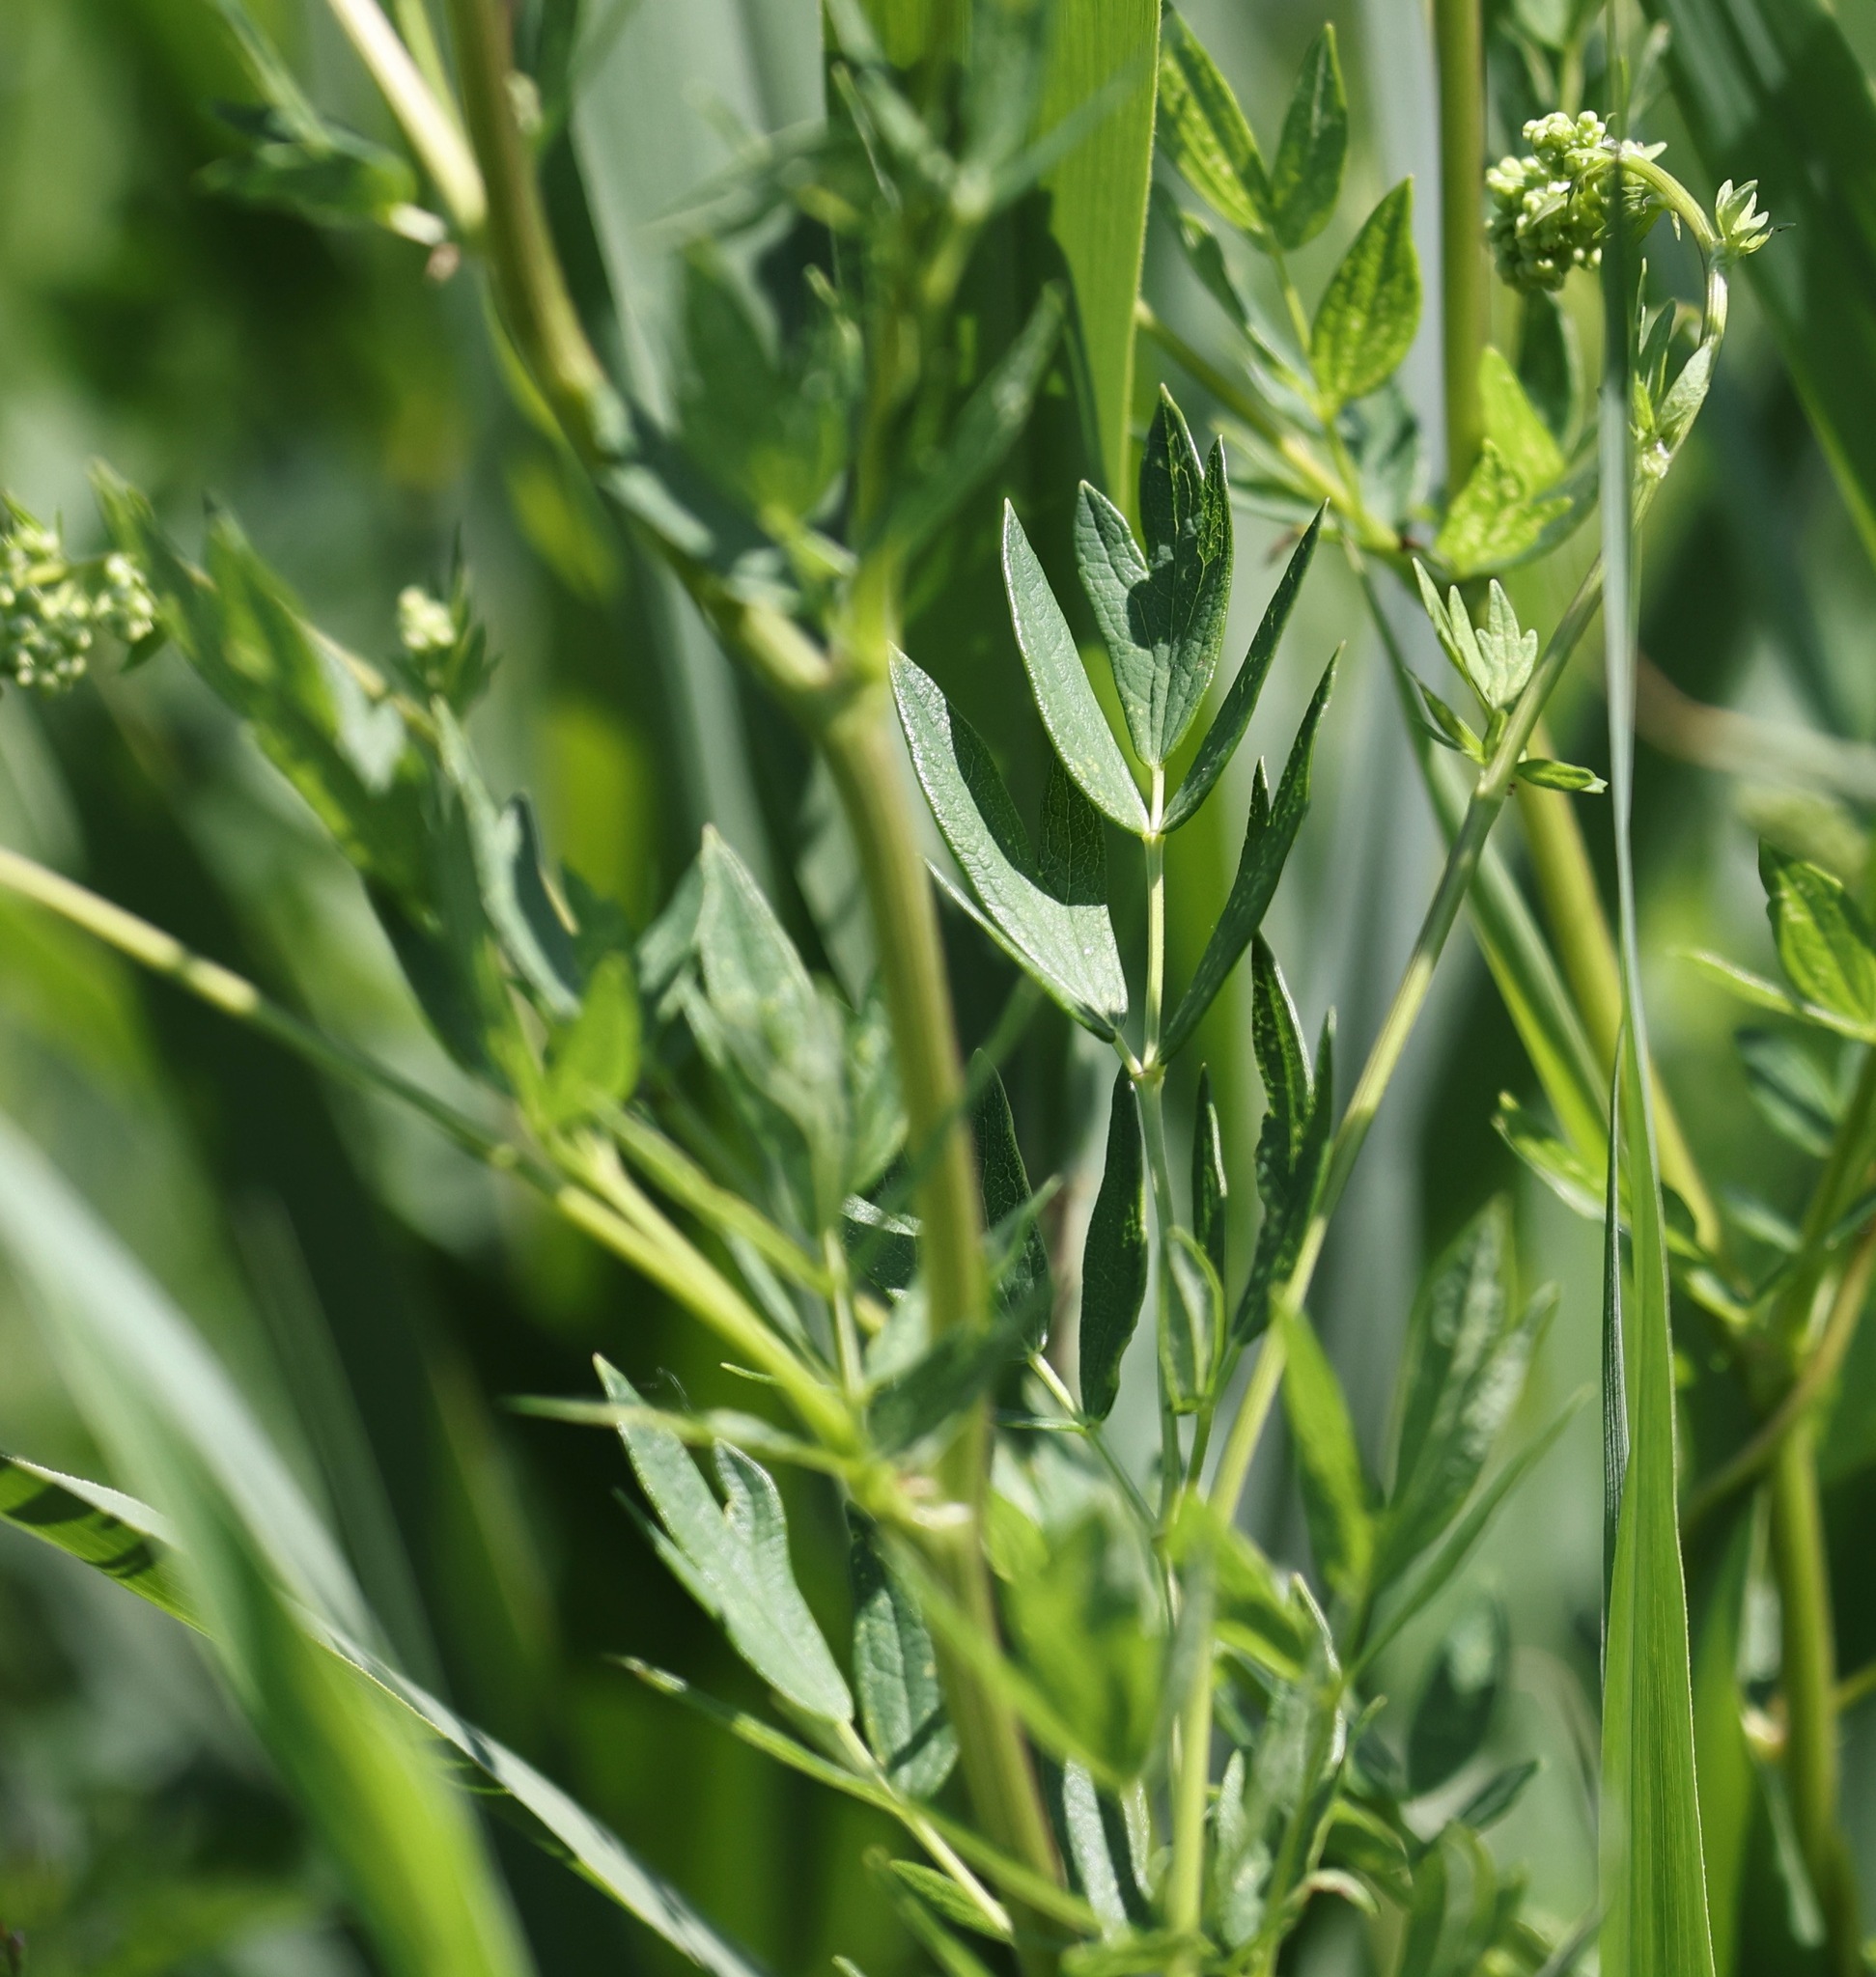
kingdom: Plantae
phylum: Tracheophyta
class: Magnoliopsida
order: Ranunculales
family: Ranunculaceae
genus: Thalictrum
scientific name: Thalictrum flavum
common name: Common meadow-rue
